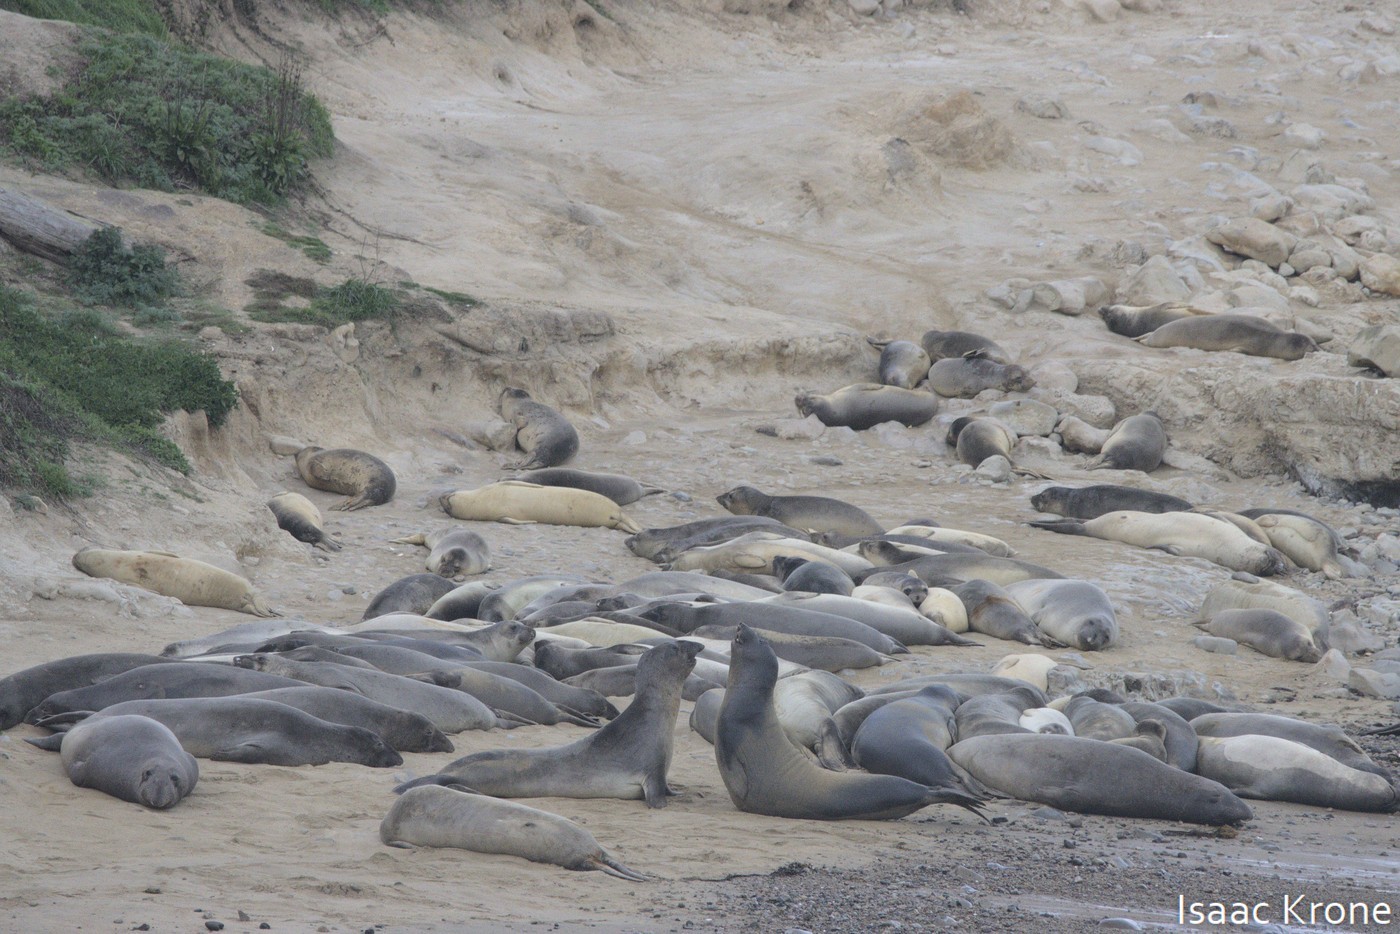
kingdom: Animalia
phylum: Chordata
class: Mammalia
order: Carnivora
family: Phocidae
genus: Mirounga
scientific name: Mirounga angustirostris
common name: Northern elephant seal
